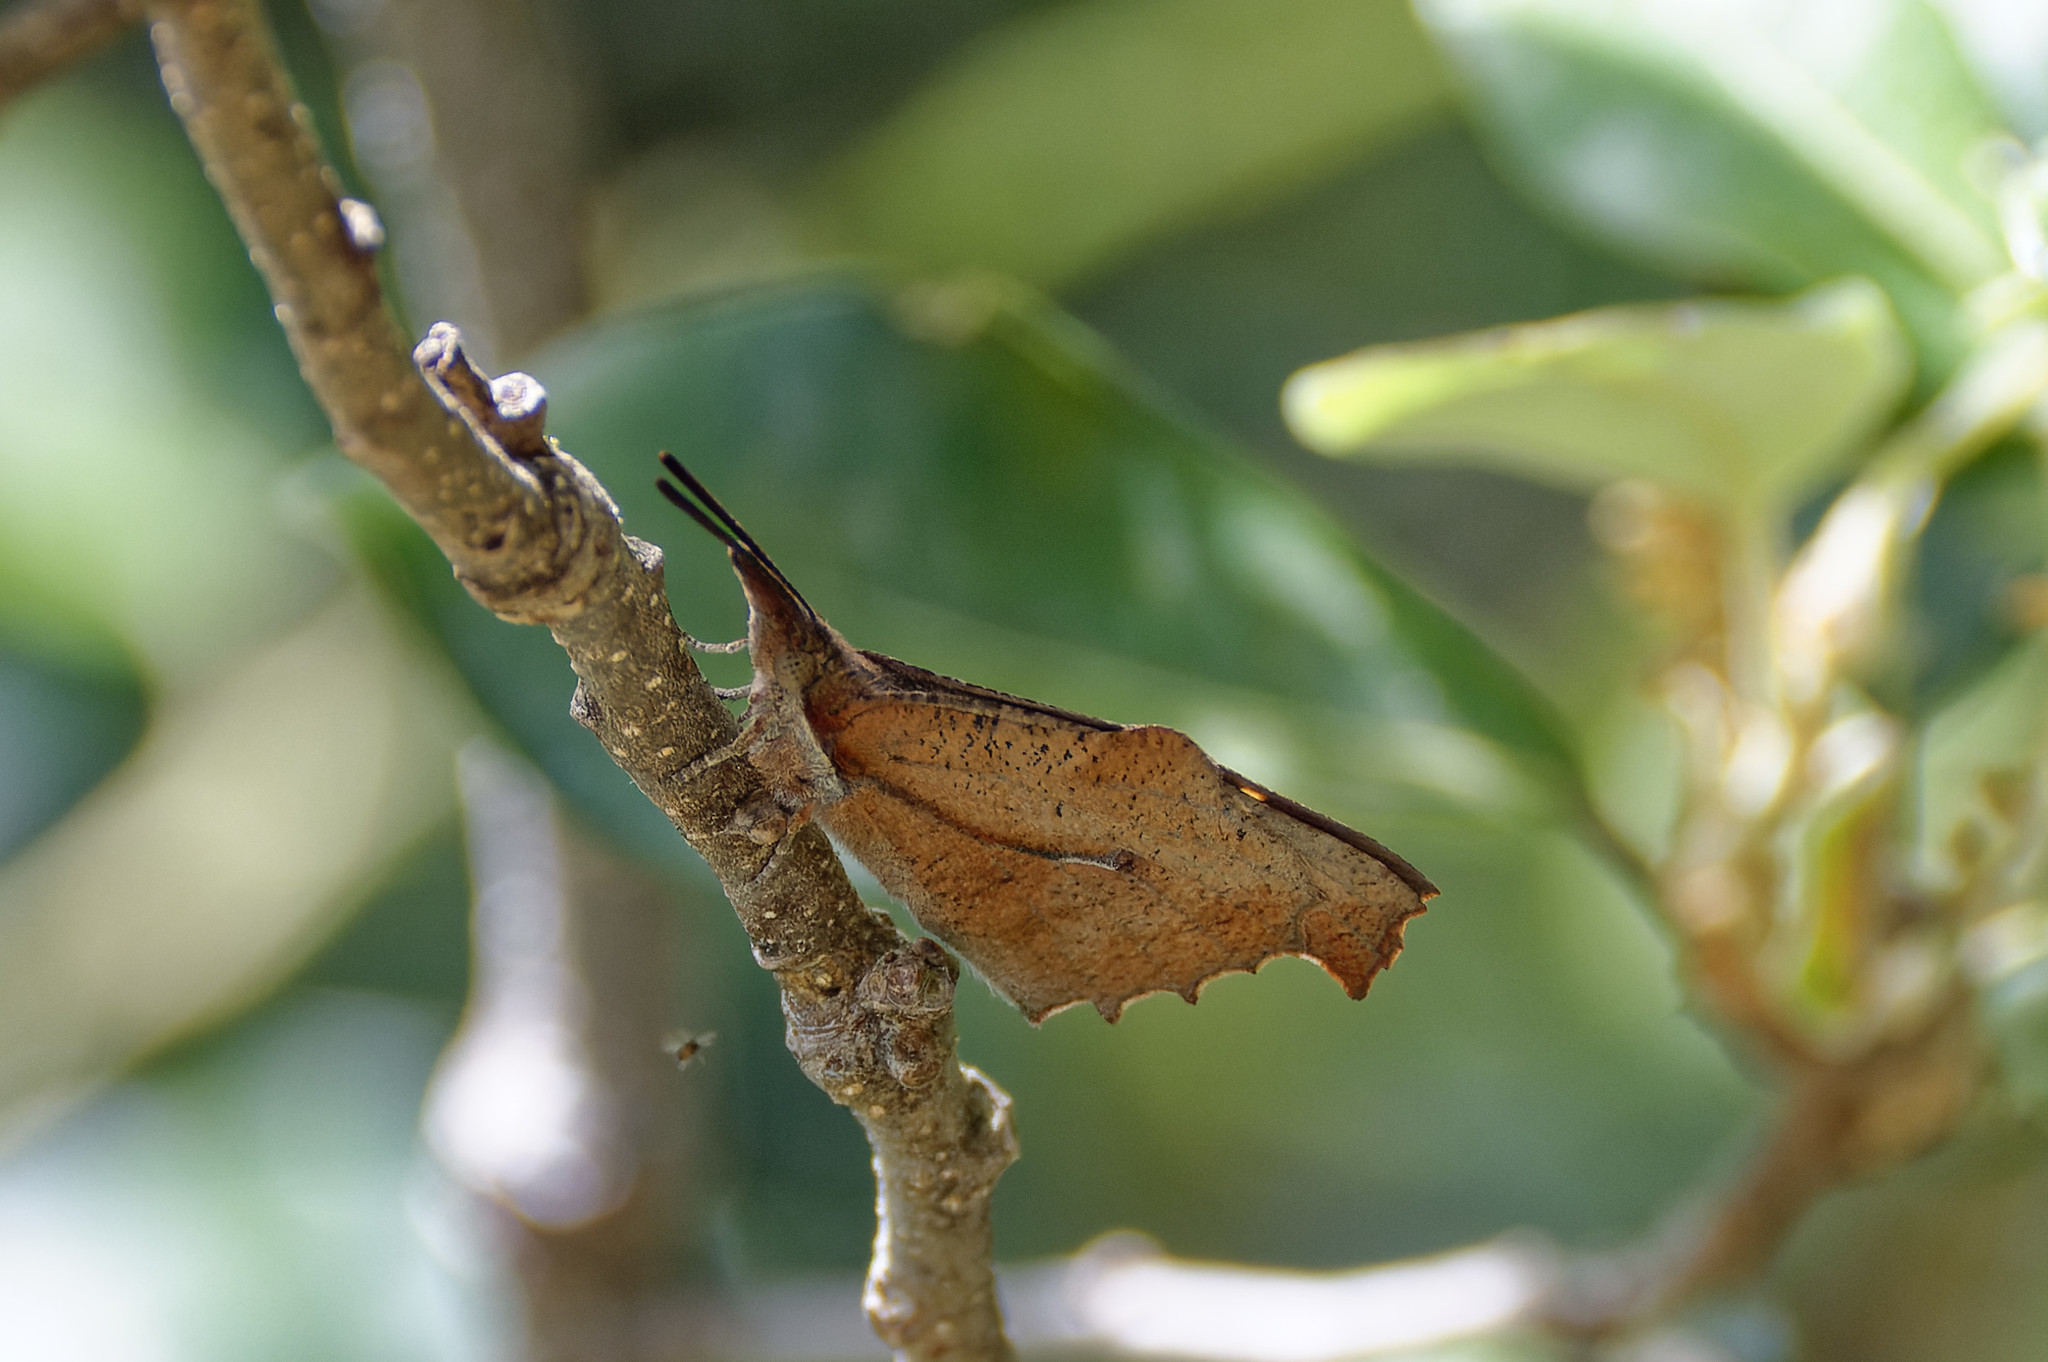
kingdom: Animalia
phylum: Arthropoda
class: Insecta
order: Lepidoptera
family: Nymphalidae
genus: Libythea
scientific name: Libythea celtis
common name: Nettle-tree butterfly
